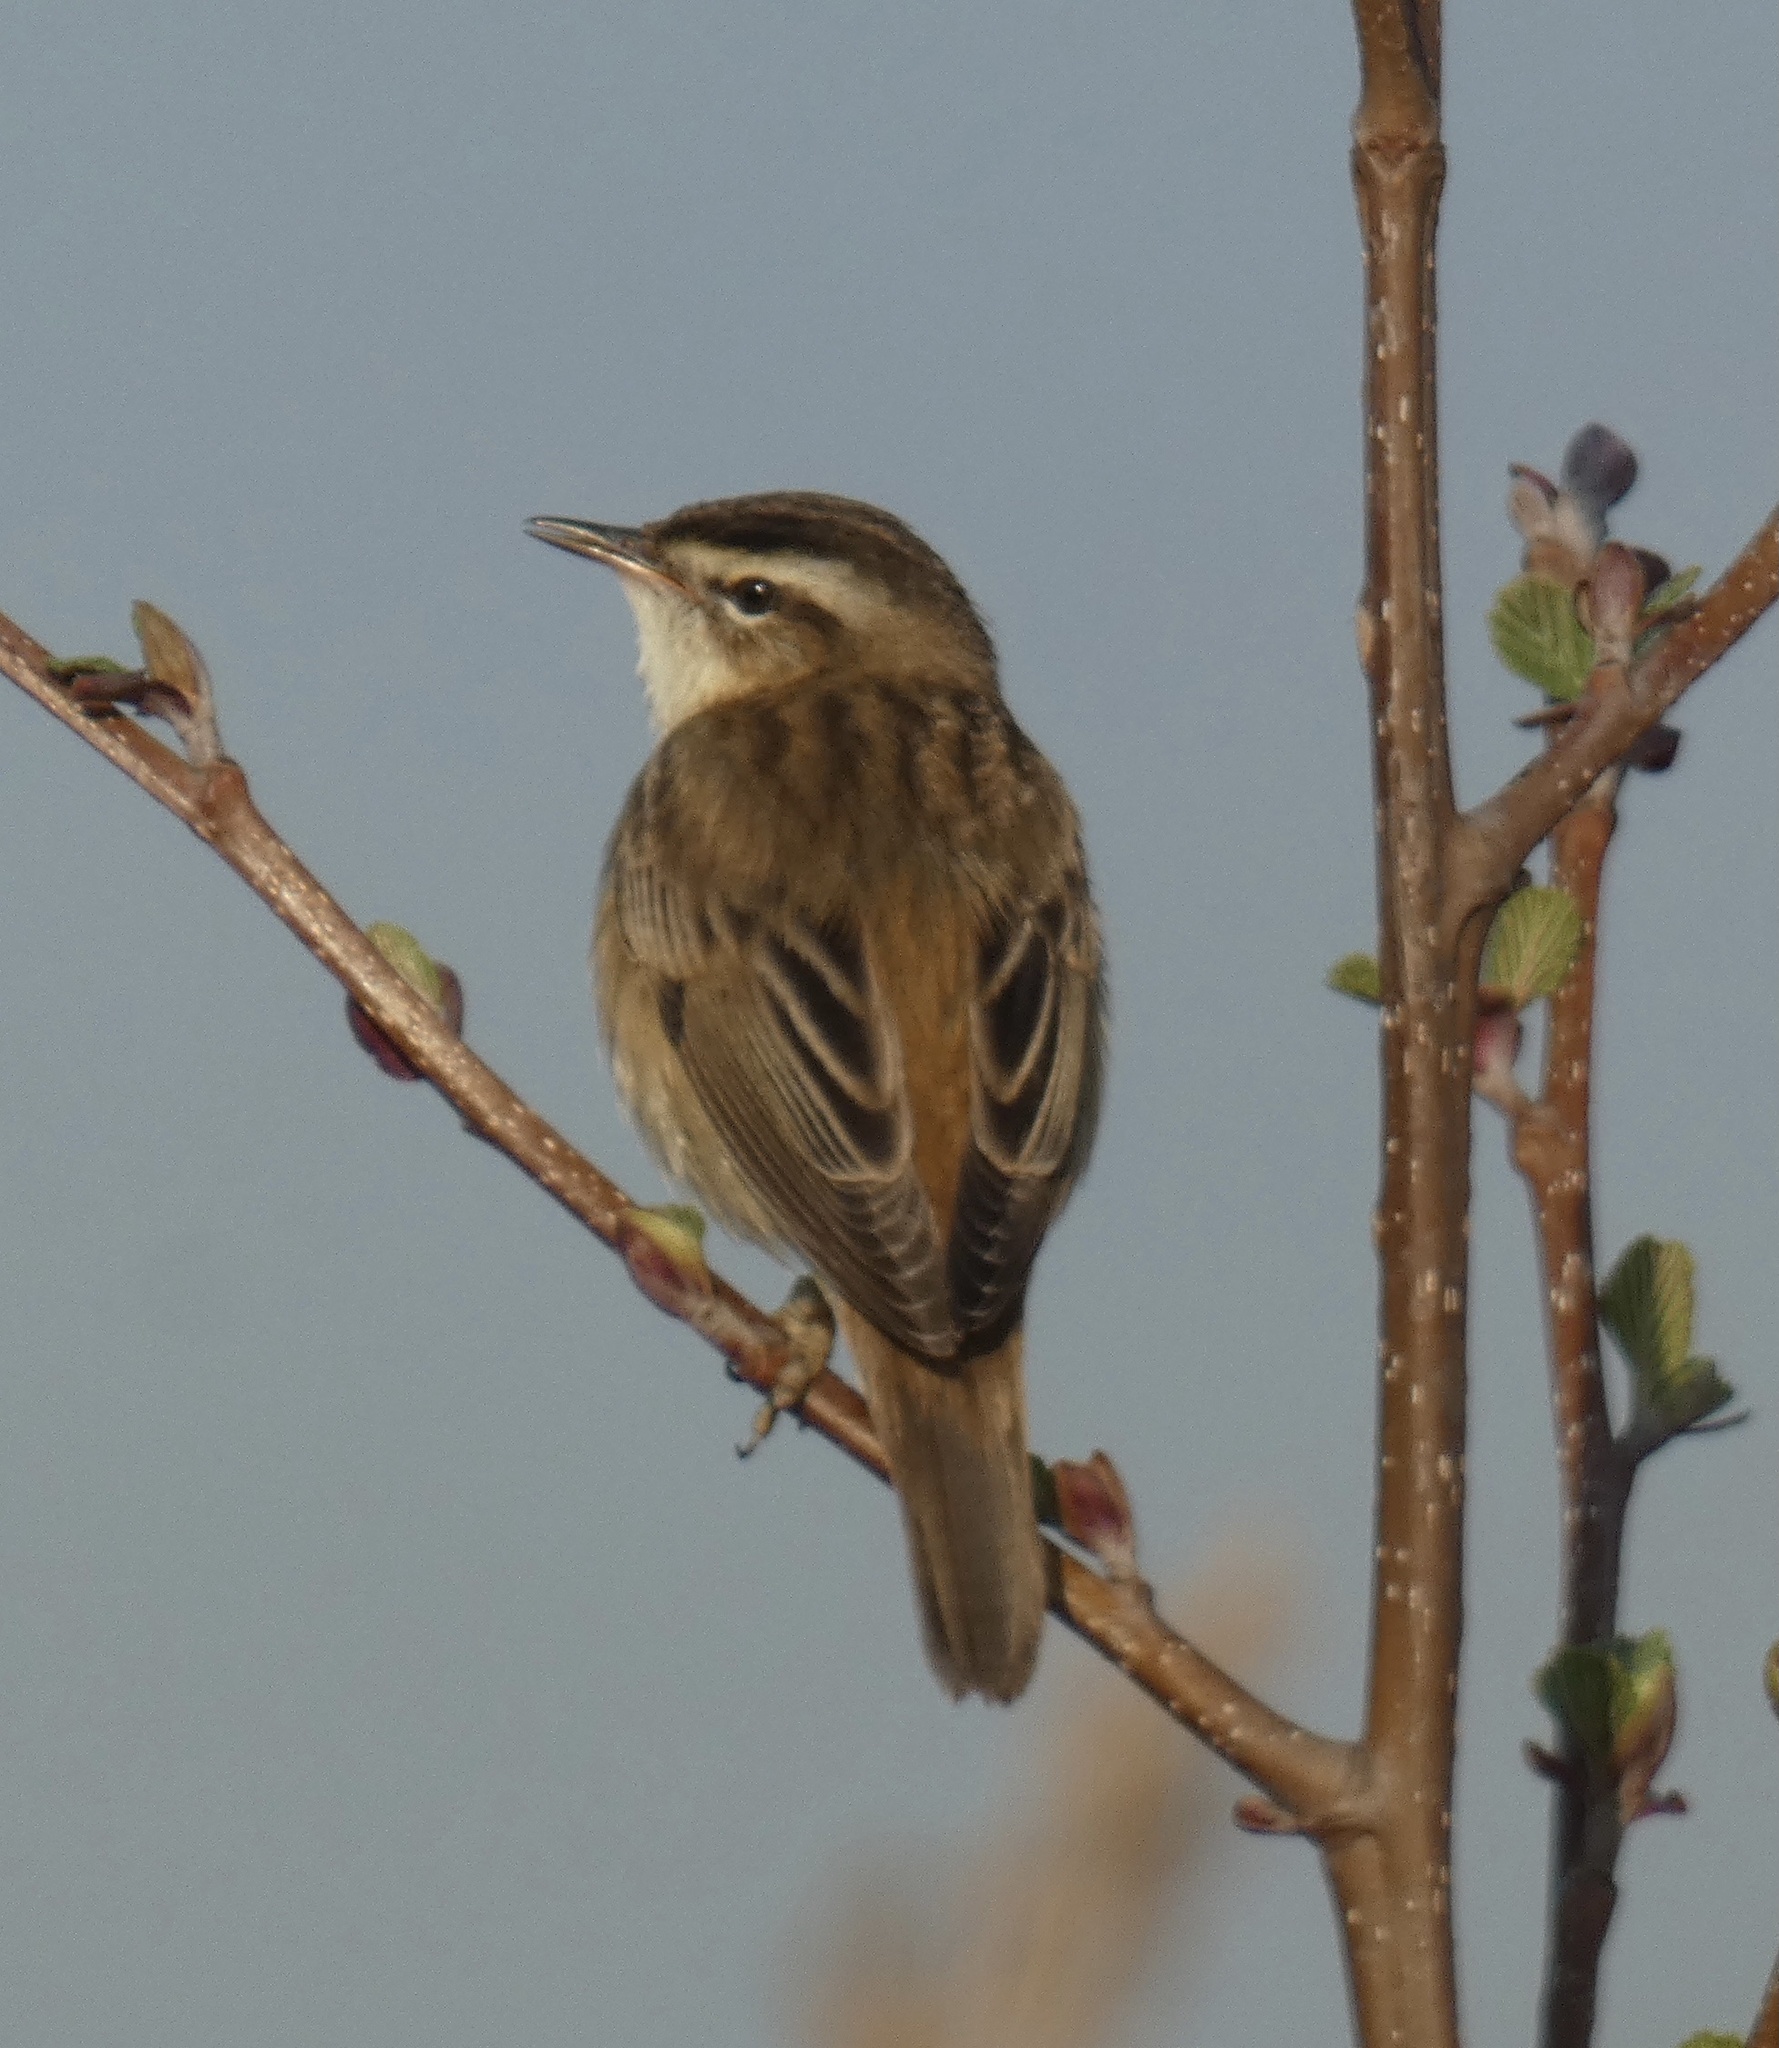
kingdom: Animalia
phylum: Chordata
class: Aves
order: Passeriformes
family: Acrocephalidae
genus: Acrocephalus
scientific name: Acrocephalus schoenobaenus
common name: Sedge warbler
